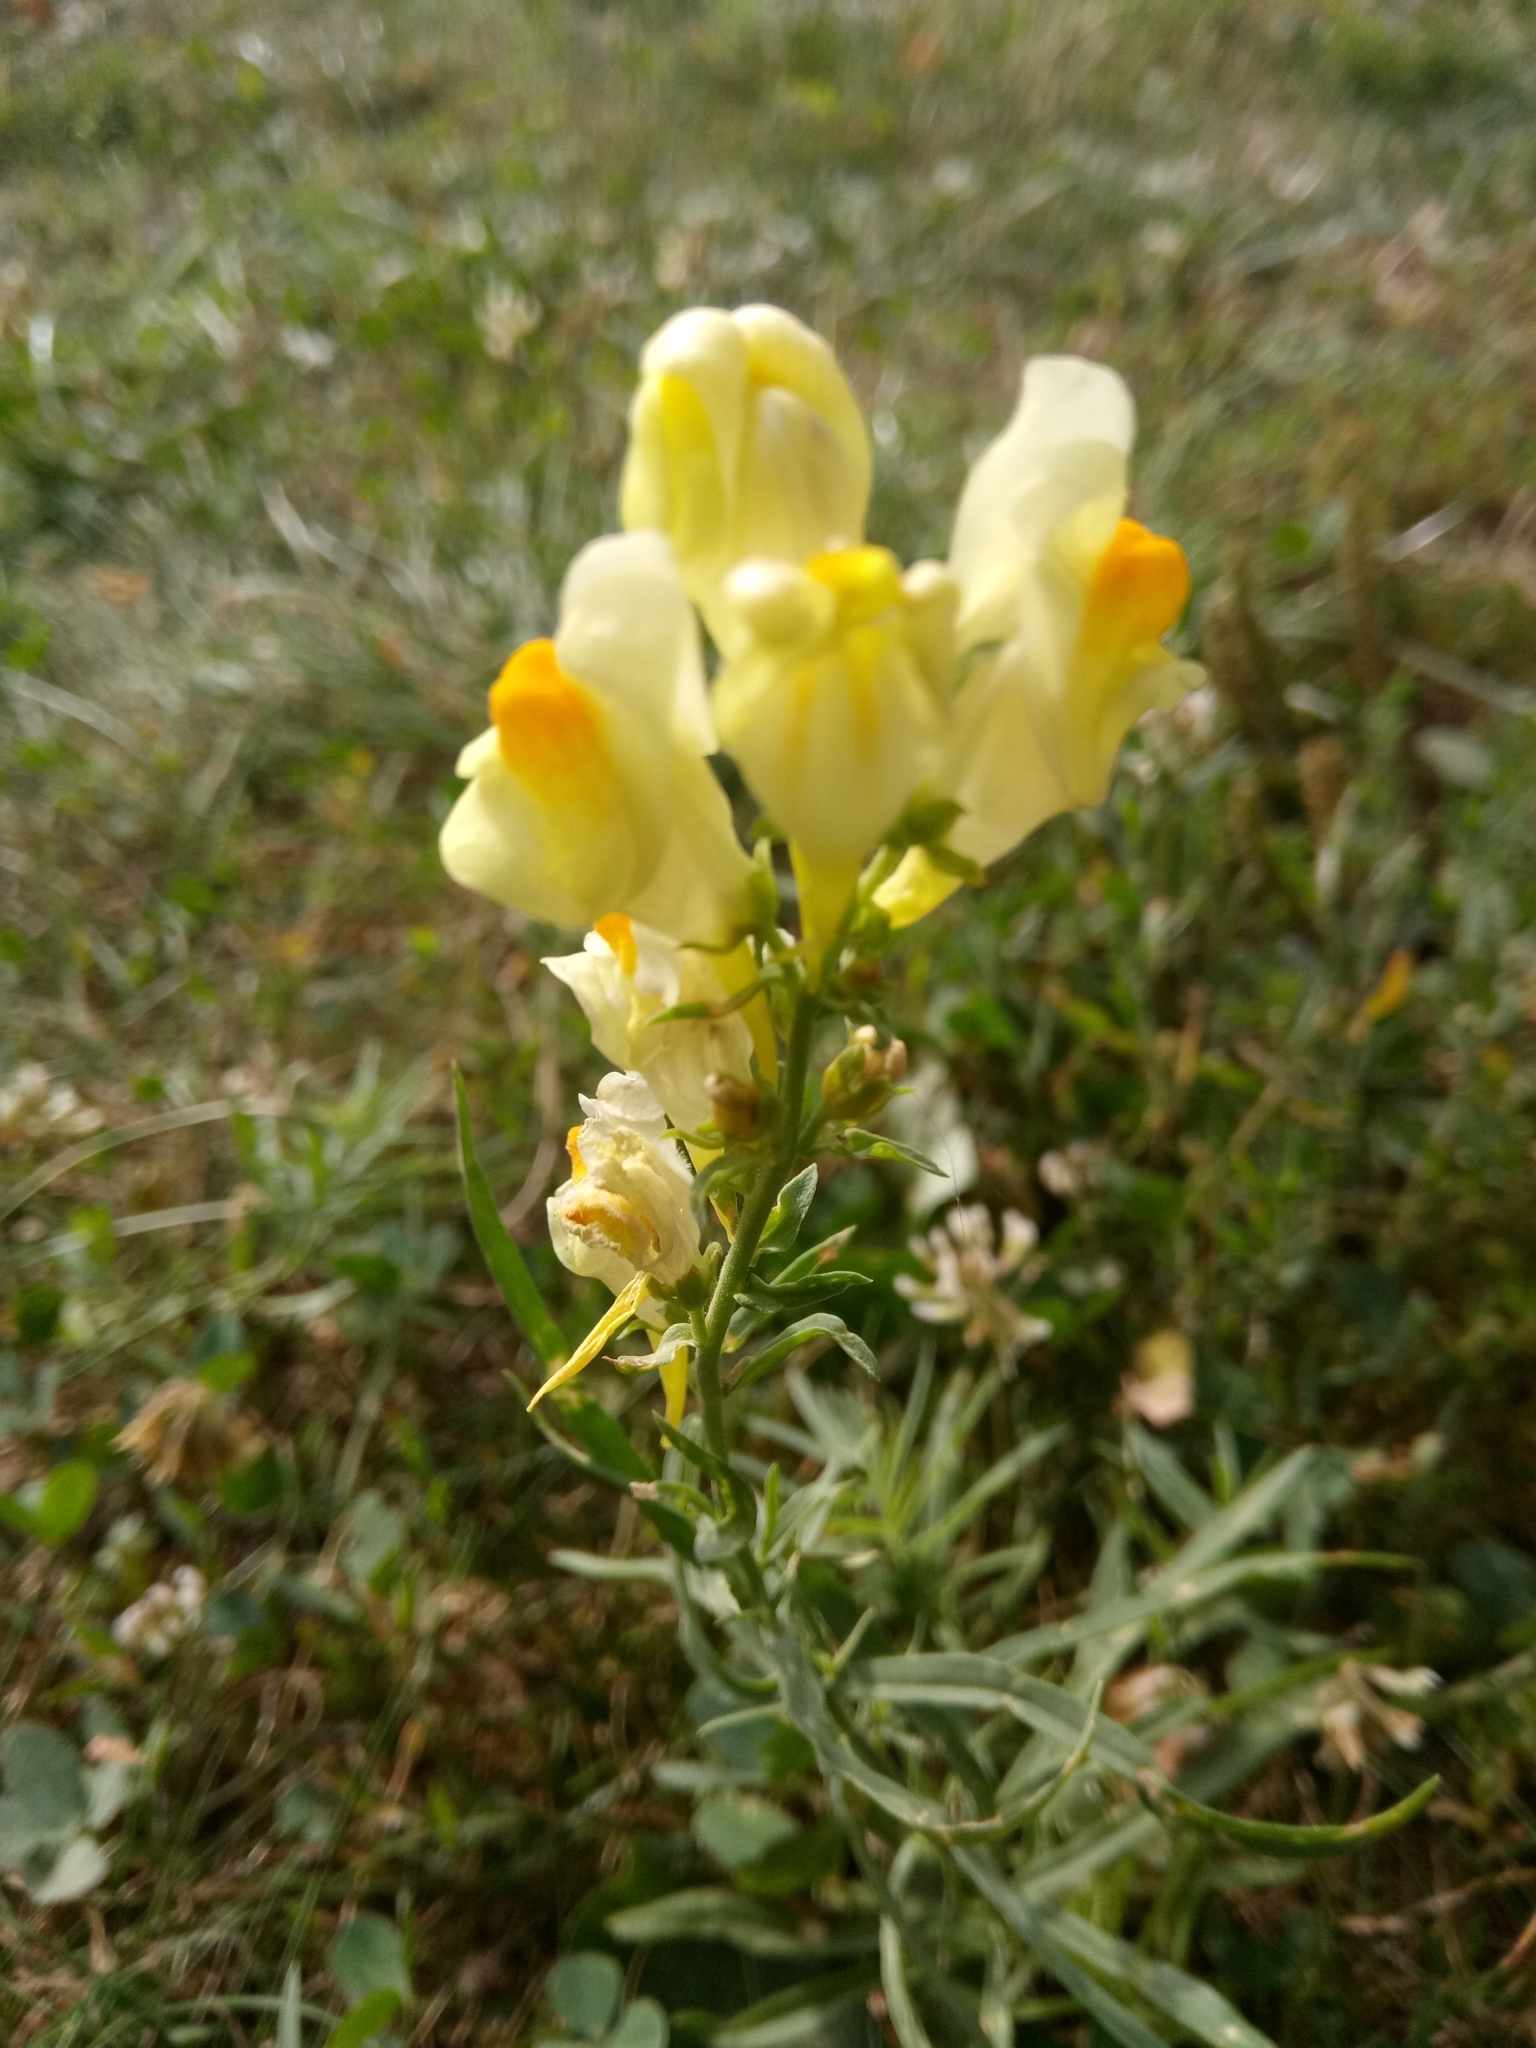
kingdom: Plantae
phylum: Tracheophyta
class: Magnoliopsida
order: Lamiales
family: Plantaginaceae
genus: Linaria
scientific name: Linaria vulgaris
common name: Butter and eggs
